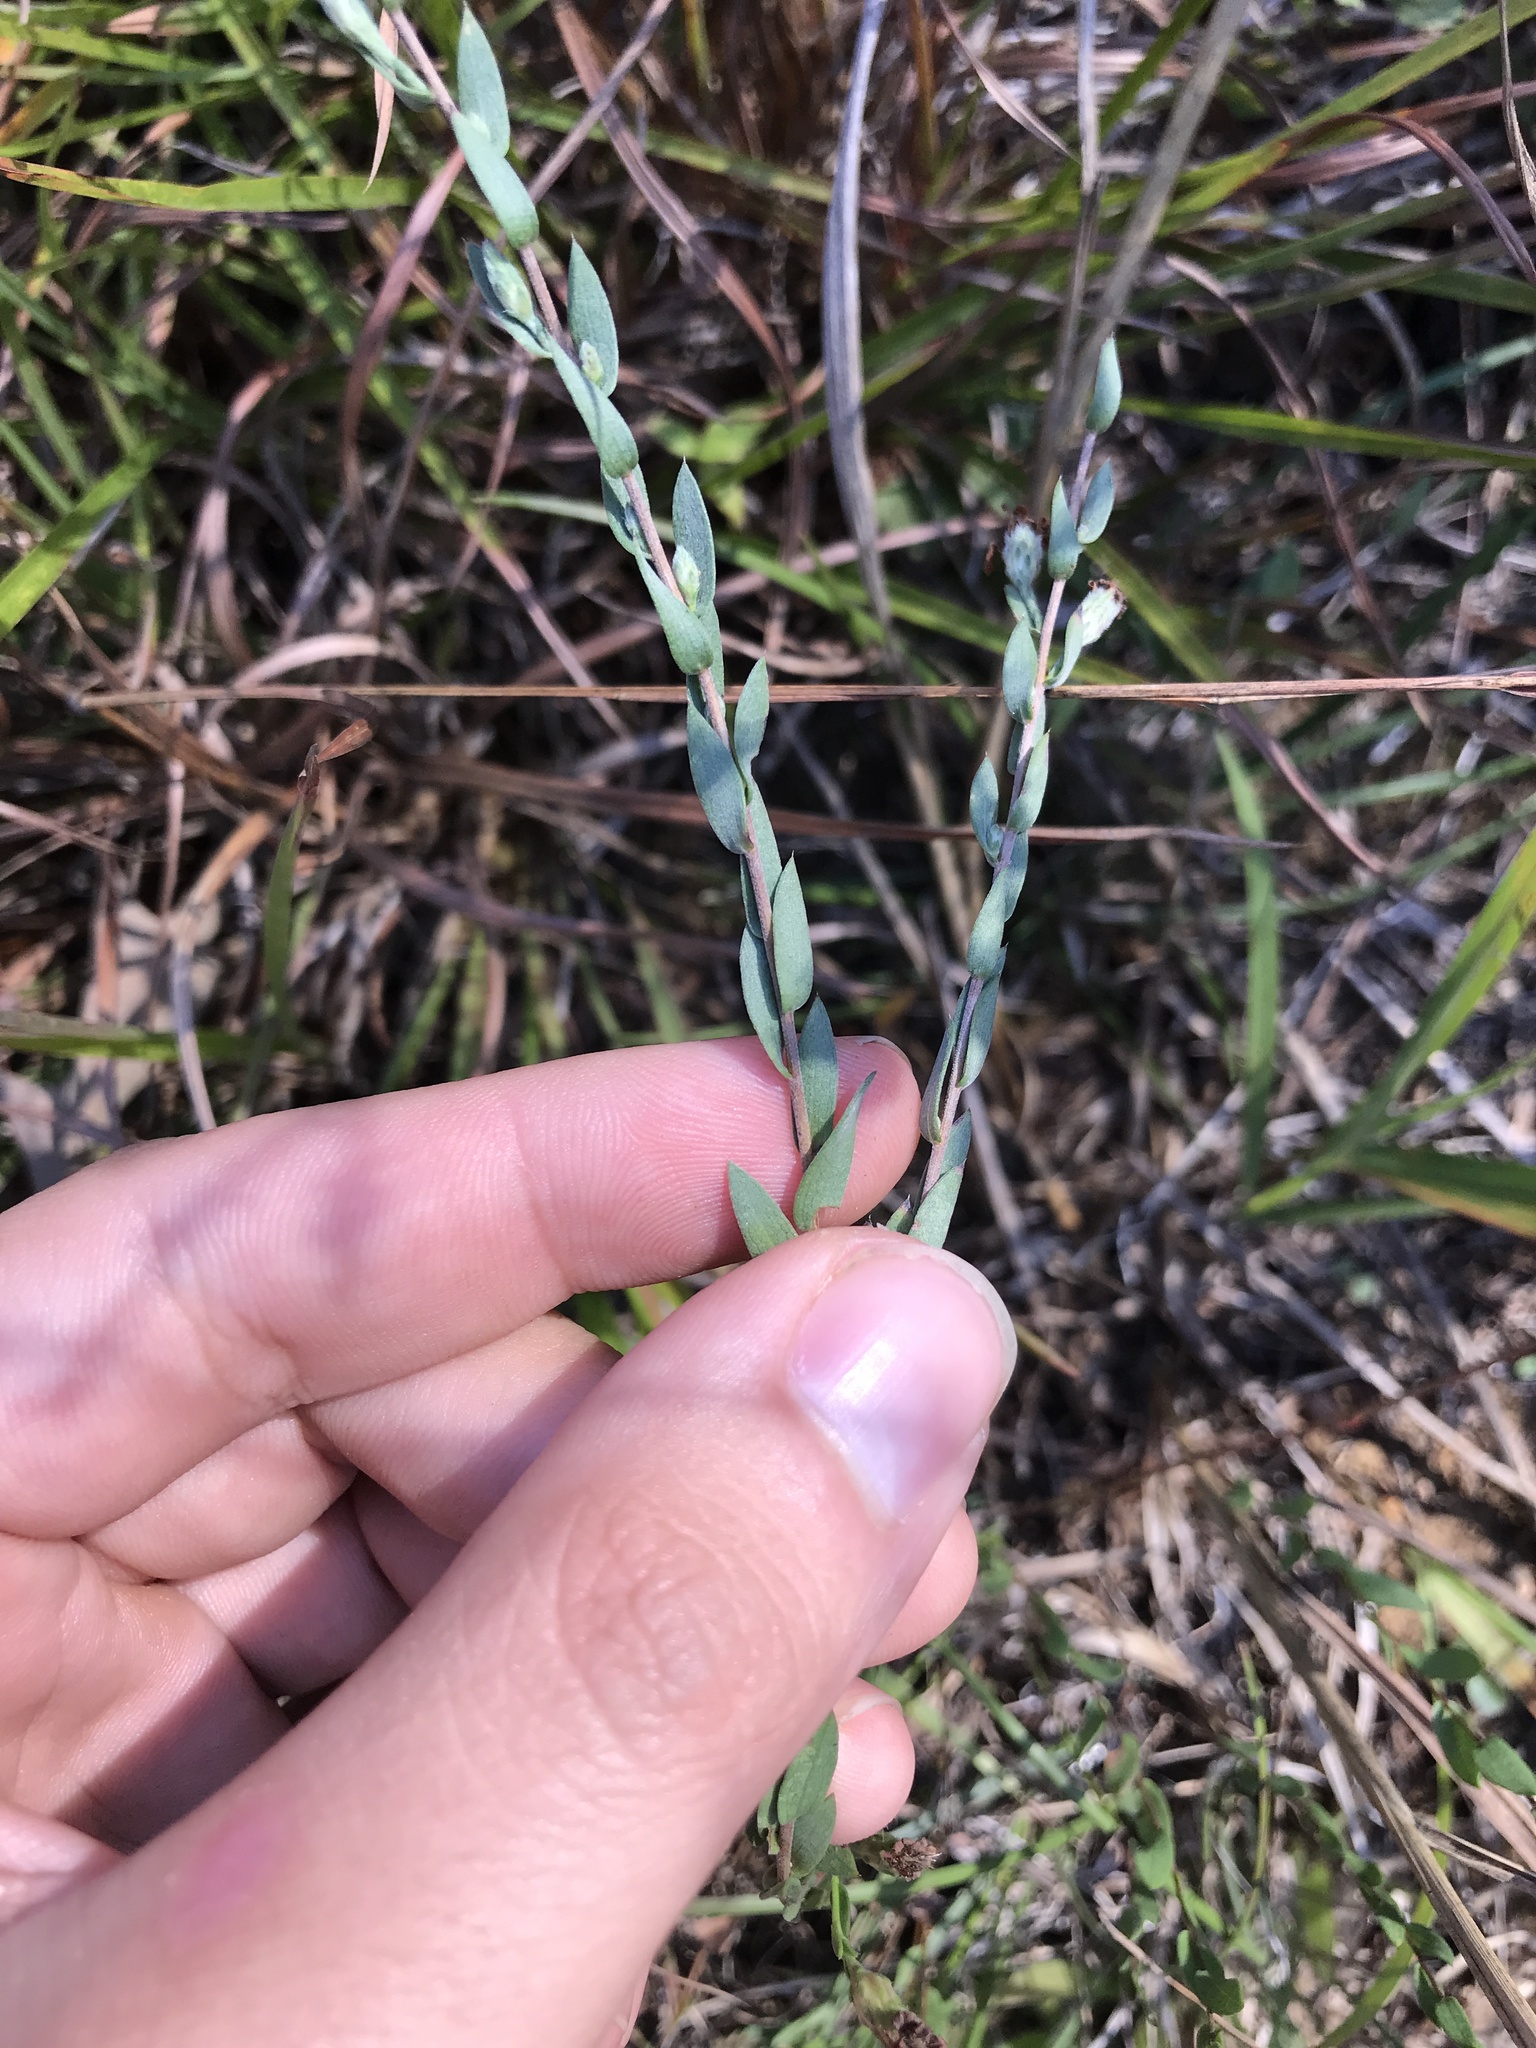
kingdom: Plantae
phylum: Tracheophyta
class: Magnoliopsida
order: Asterales
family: Asteraceae
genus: Symphyotrichum
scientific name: Symphyotrichum concolor
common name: Eastern silver aster
